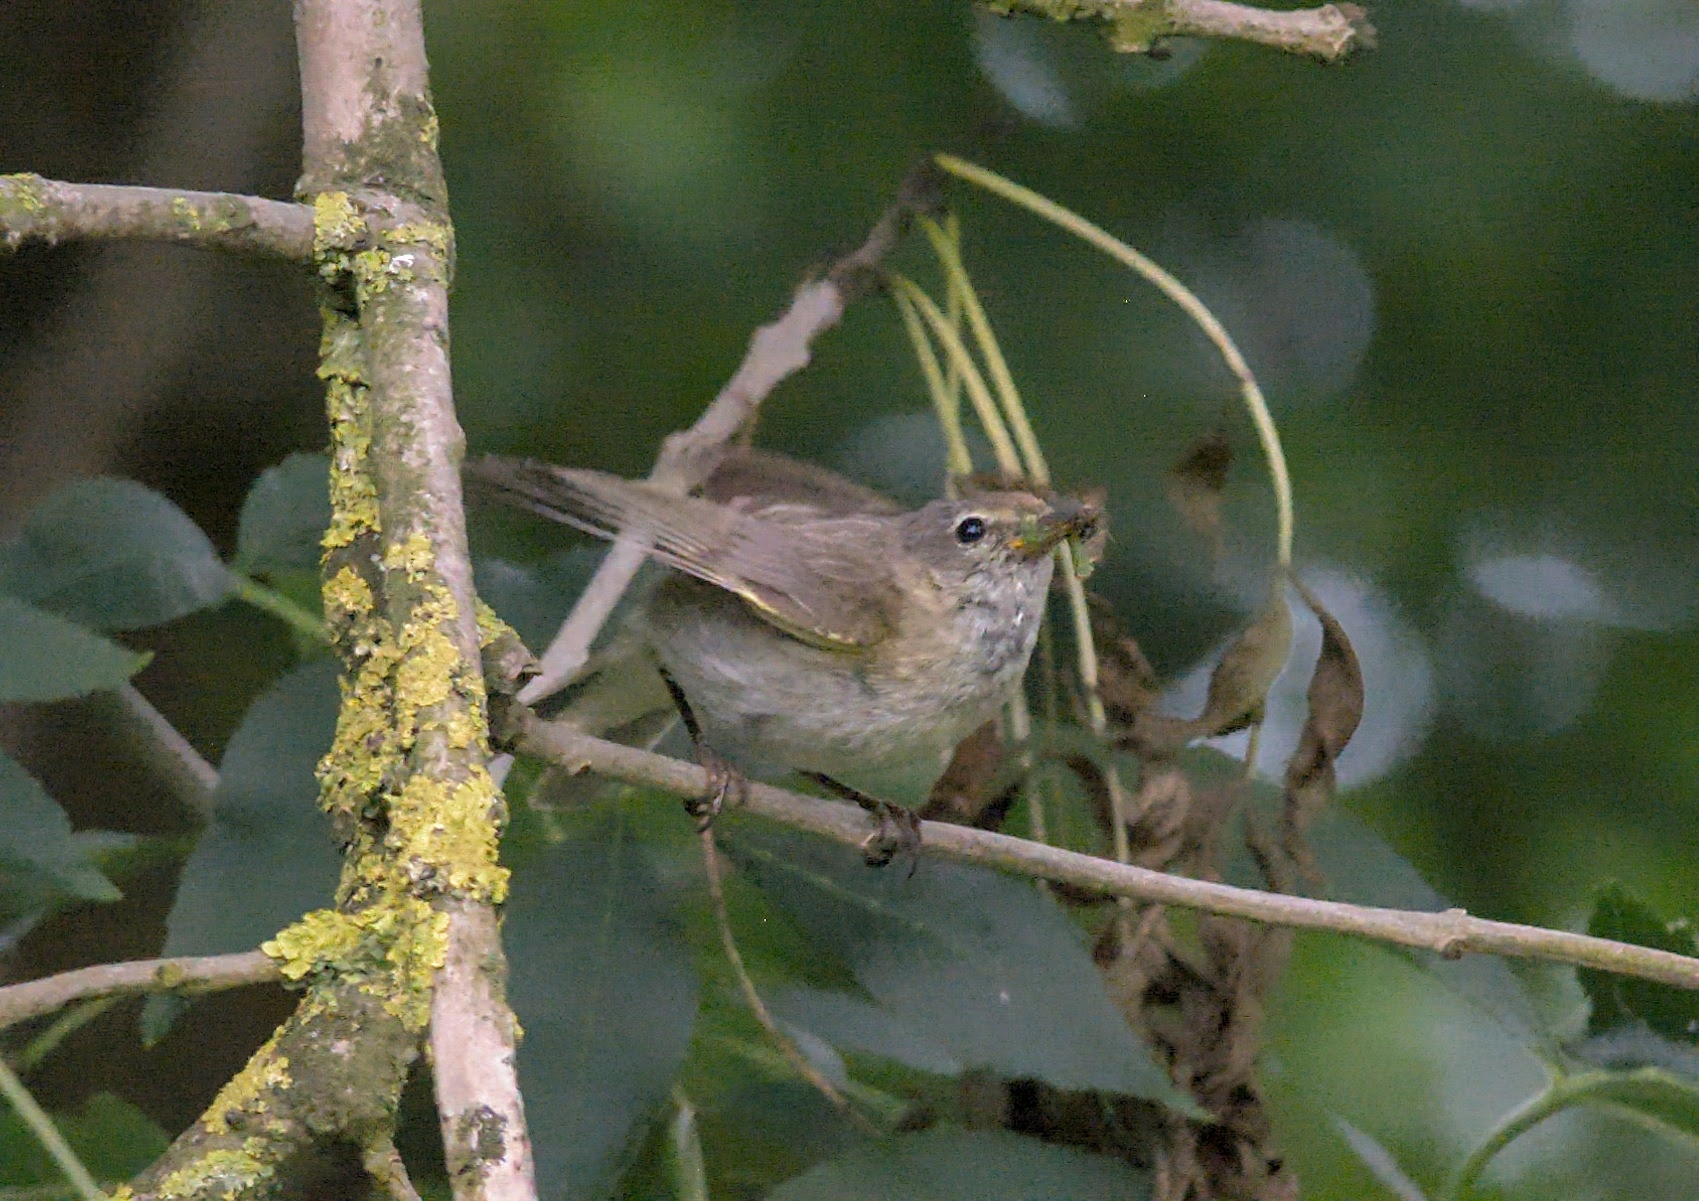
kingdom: Animalia
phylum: Chordata
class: Aves
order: Passeriformes
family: Phylloscopidae
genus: Phylloscopus
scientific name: Phylloscopus collybita
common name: Common chiffchaff
